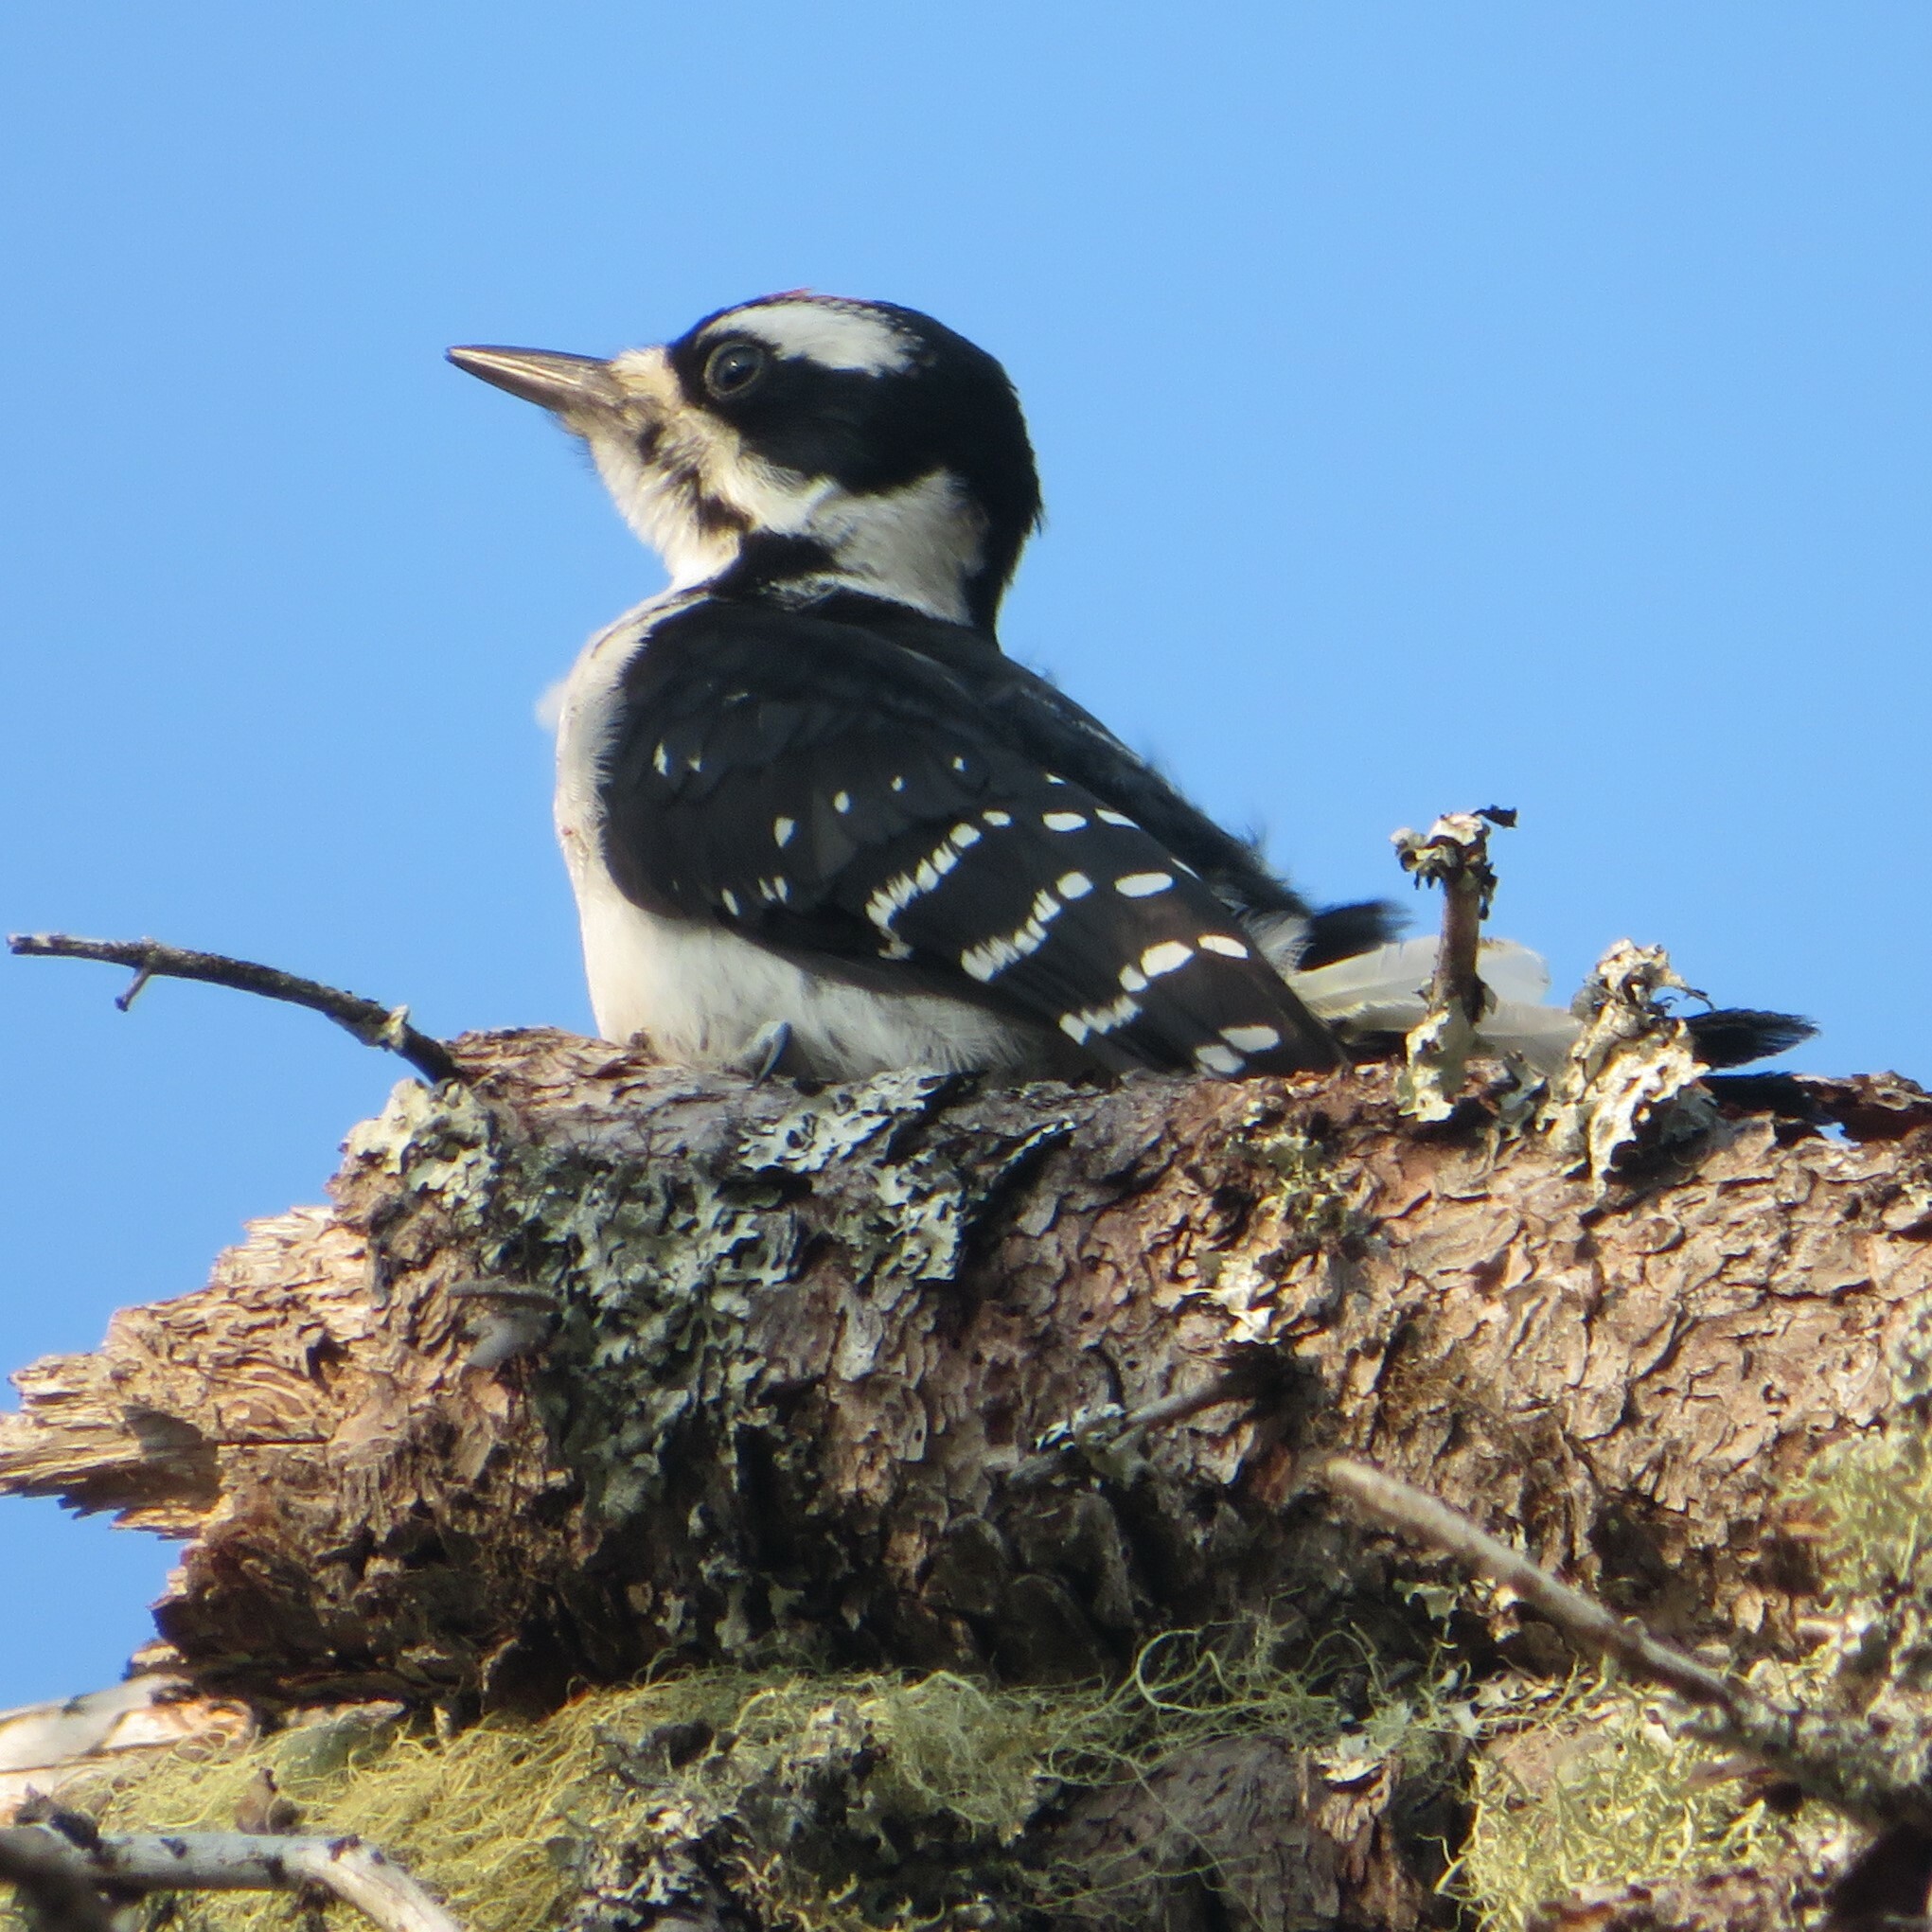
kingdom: Animalia
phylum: Chordata
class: Aves
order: Piciformes
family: Picidae
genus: Leuconotopicus
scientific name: Leuconotopicus villosus
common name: Hairy woodpecker
